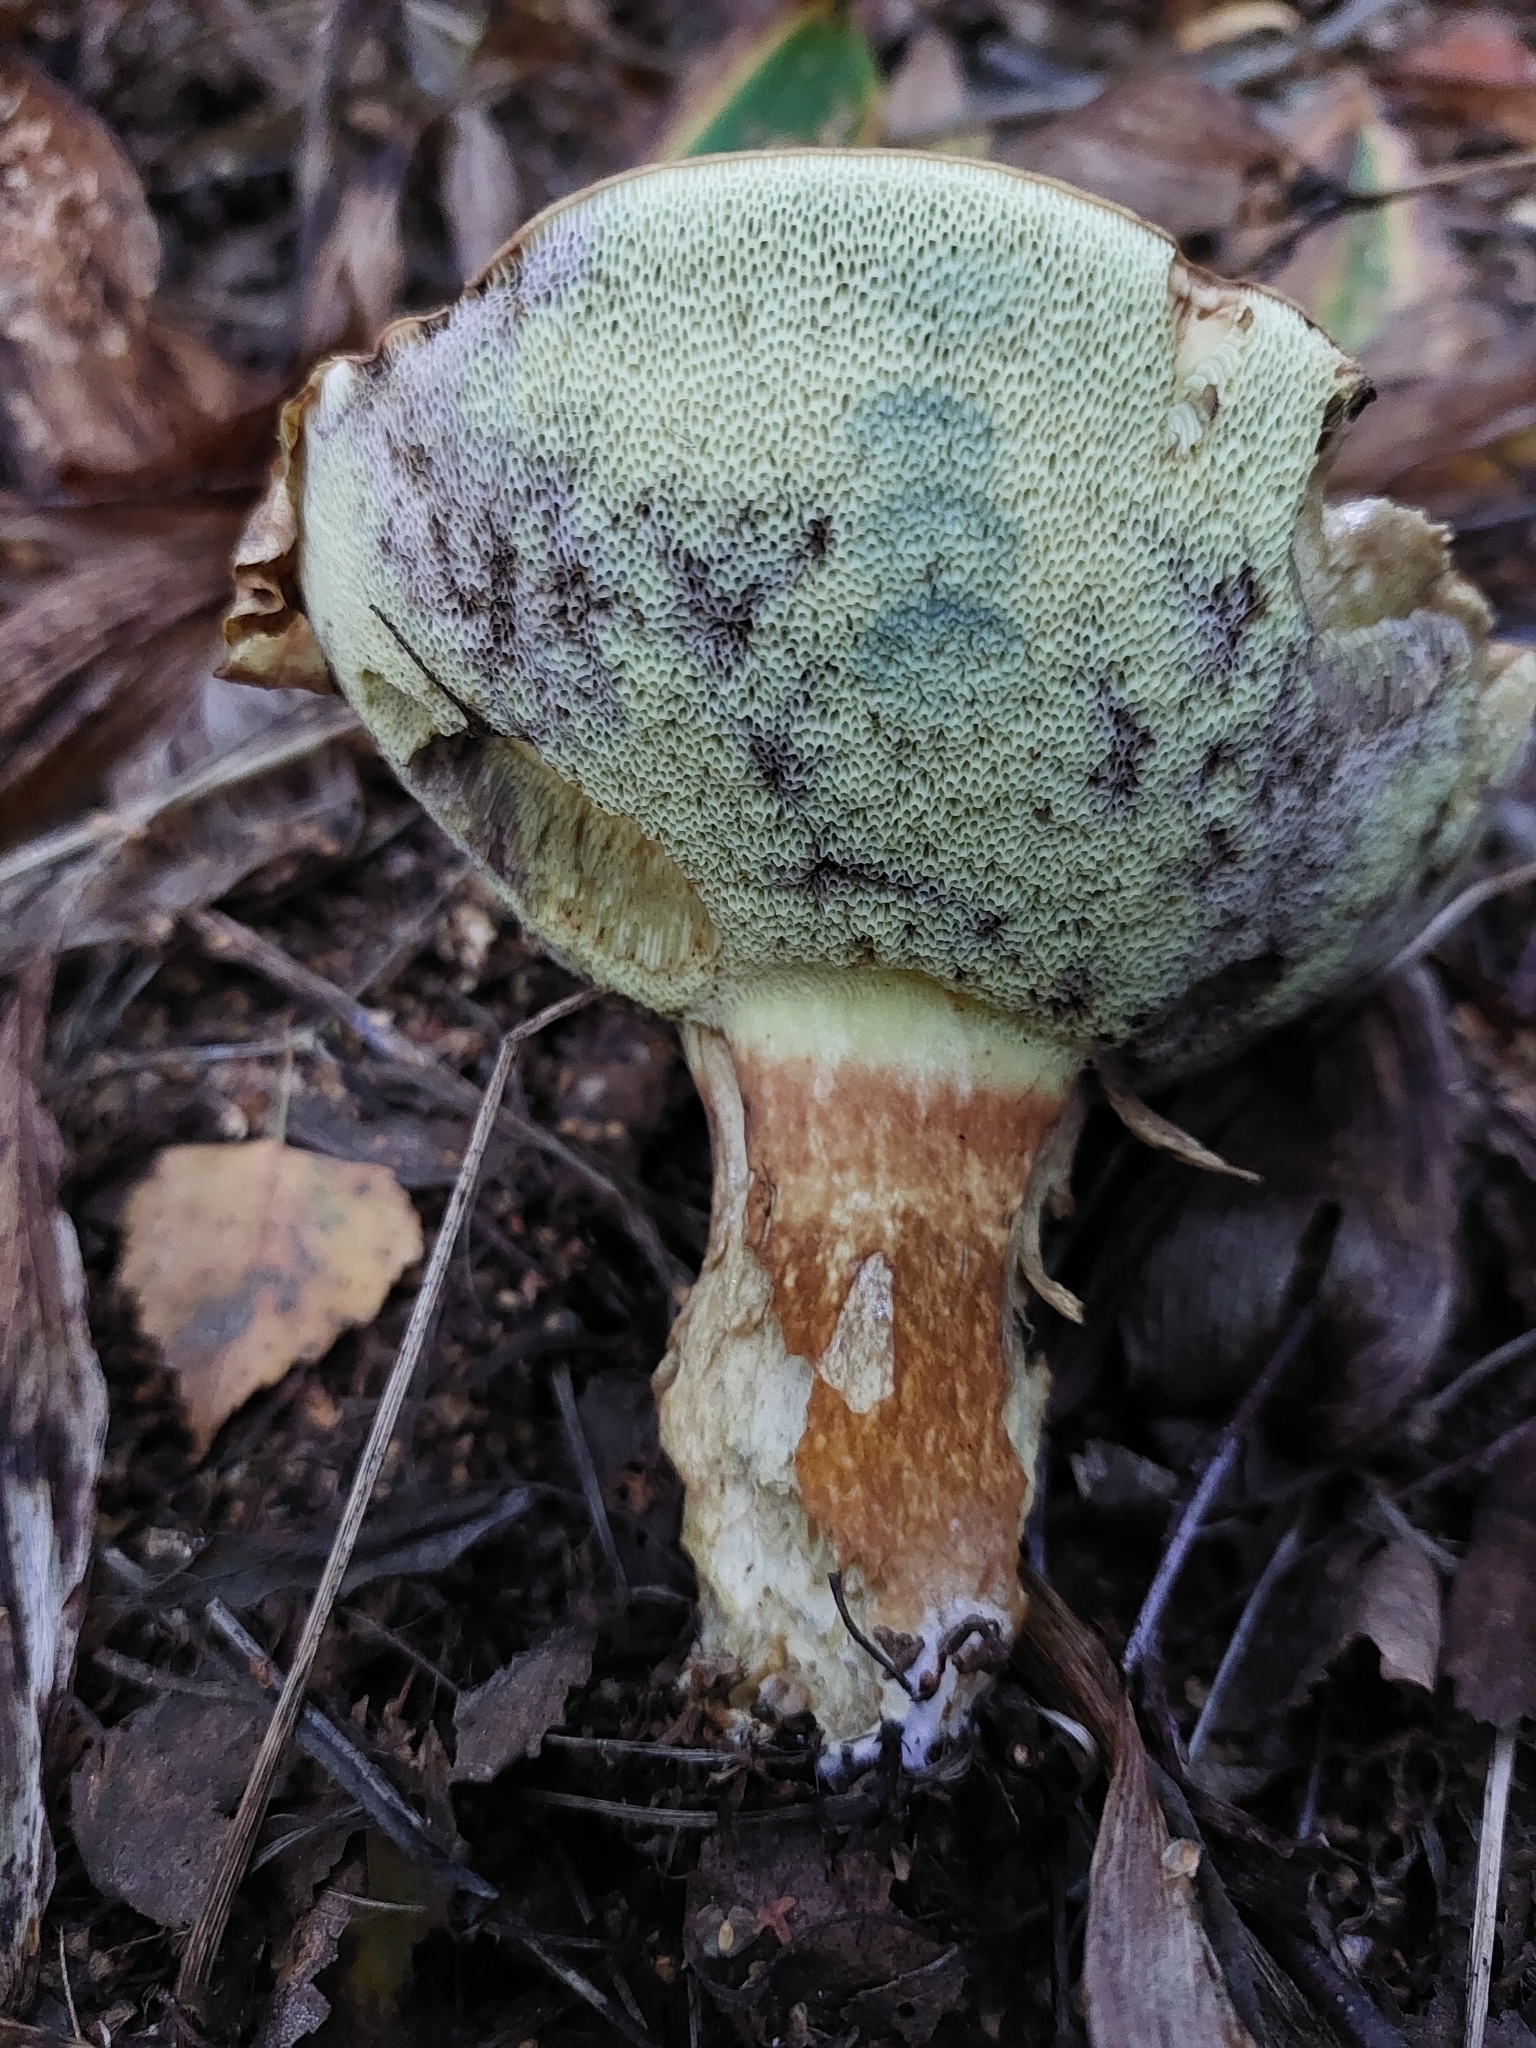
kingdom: Fungi
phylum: Basidiomycota
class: Agaricomycetes
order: Boletales
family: Boletaceae
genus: Imleria
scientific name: Imleria badia
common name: Bay bolete
